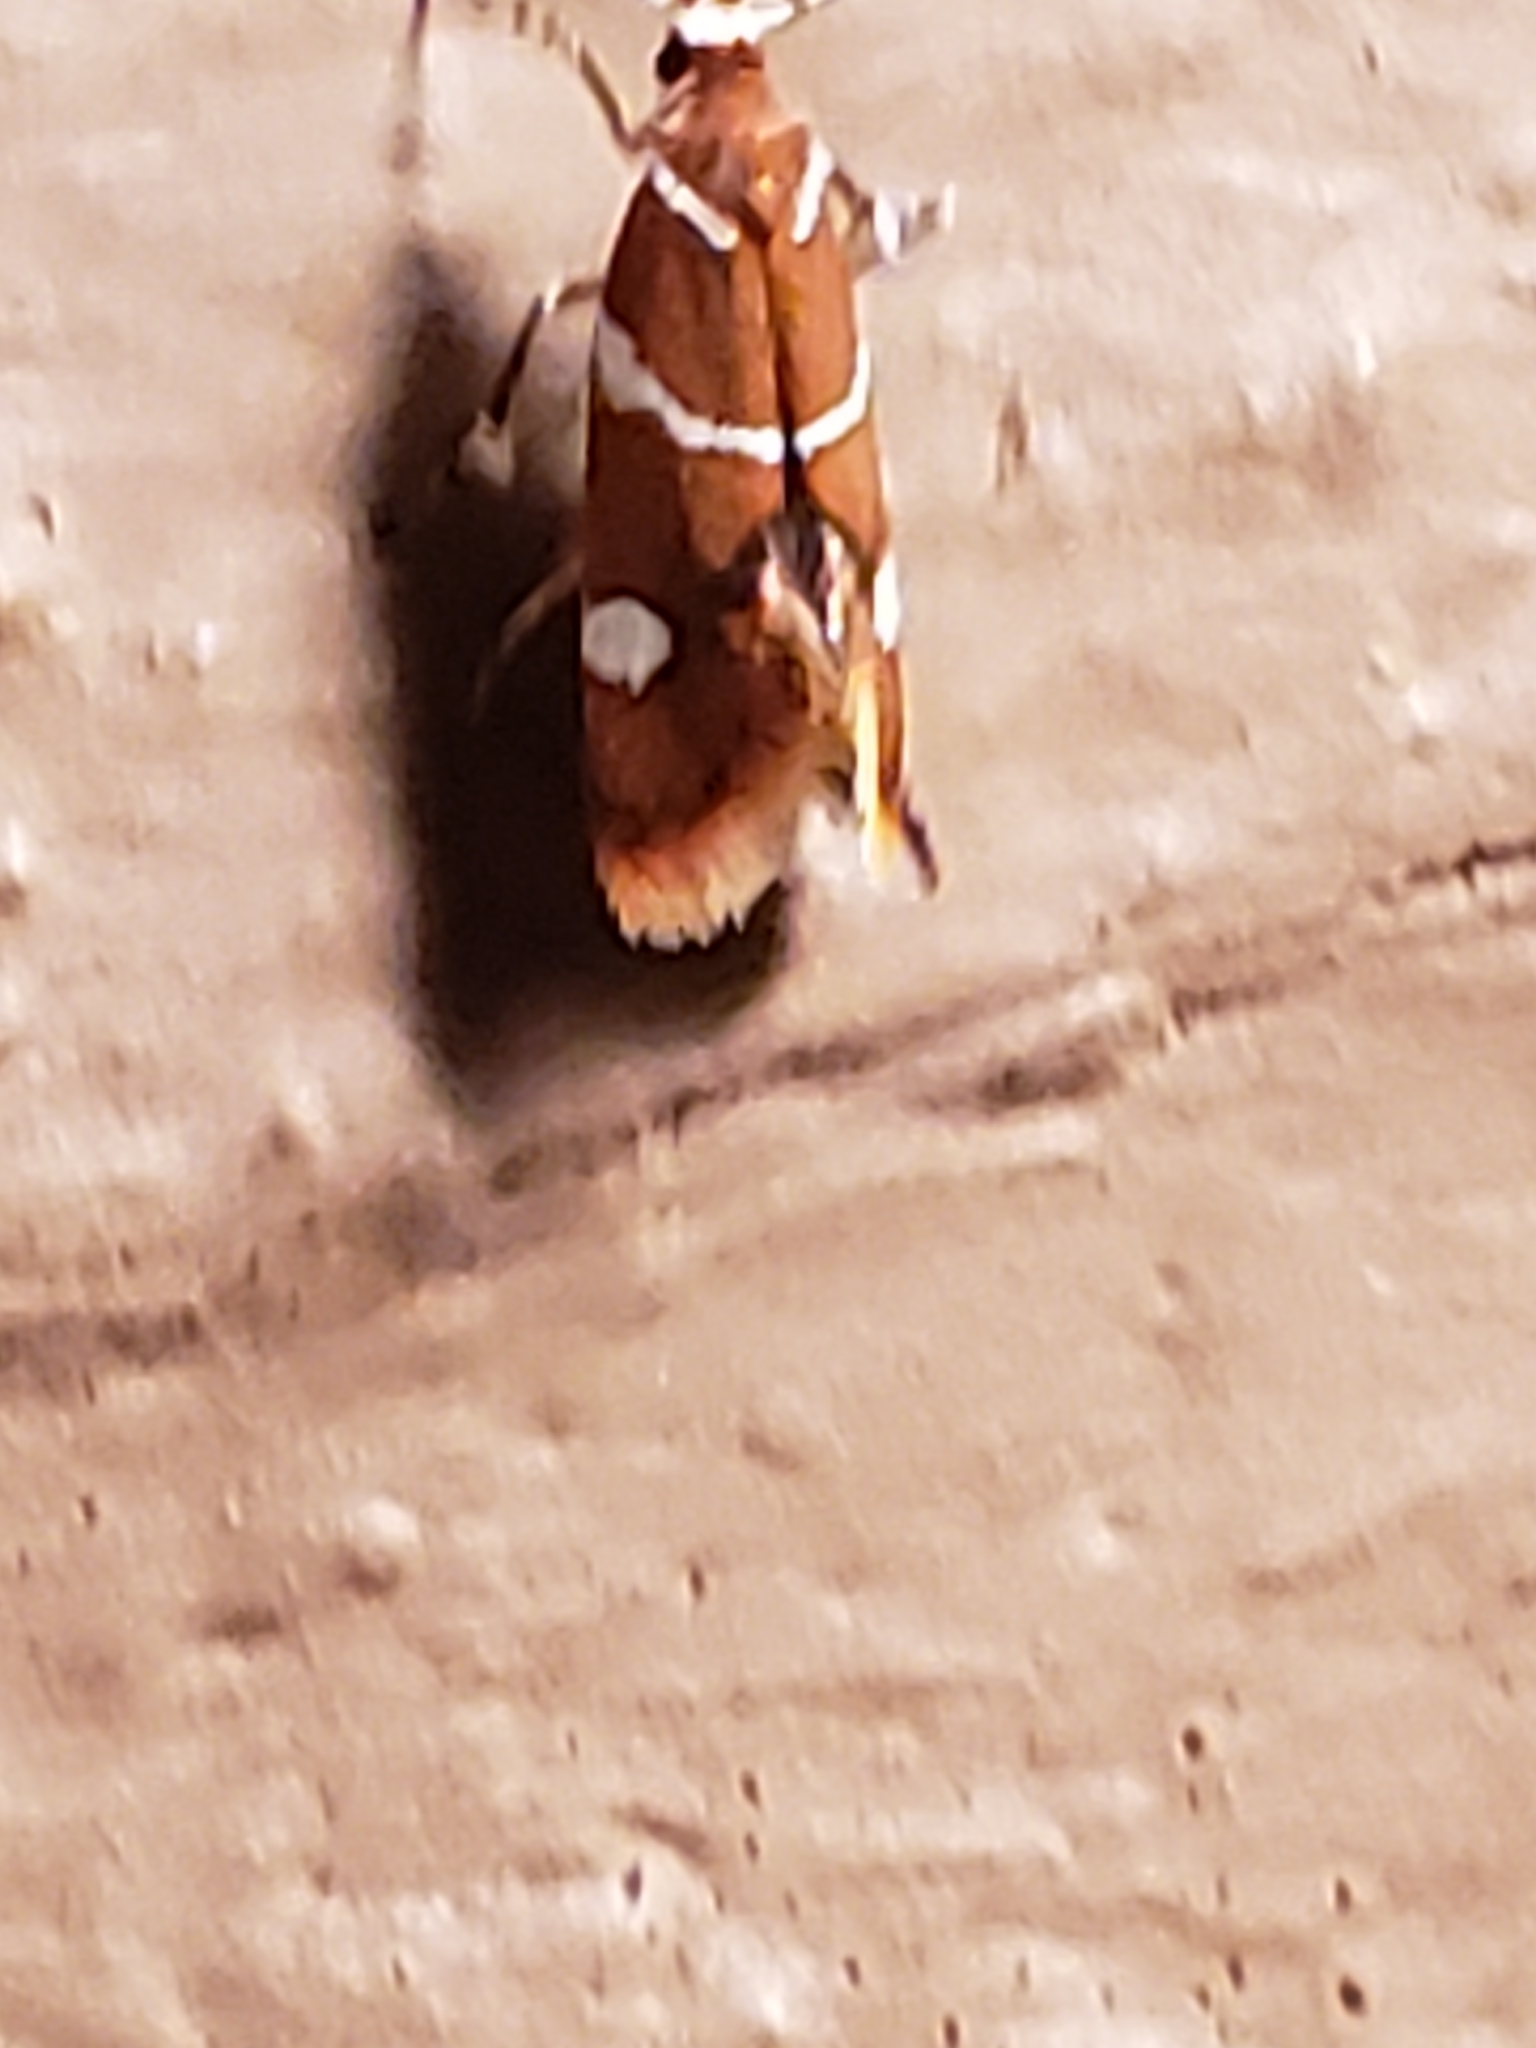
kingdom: Animalia
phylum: Arthropoda
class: Insecta
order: Lepidoptera
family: Oecophoridae
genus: Promalactis
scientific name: Promalactis suzukiella
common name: Moth
